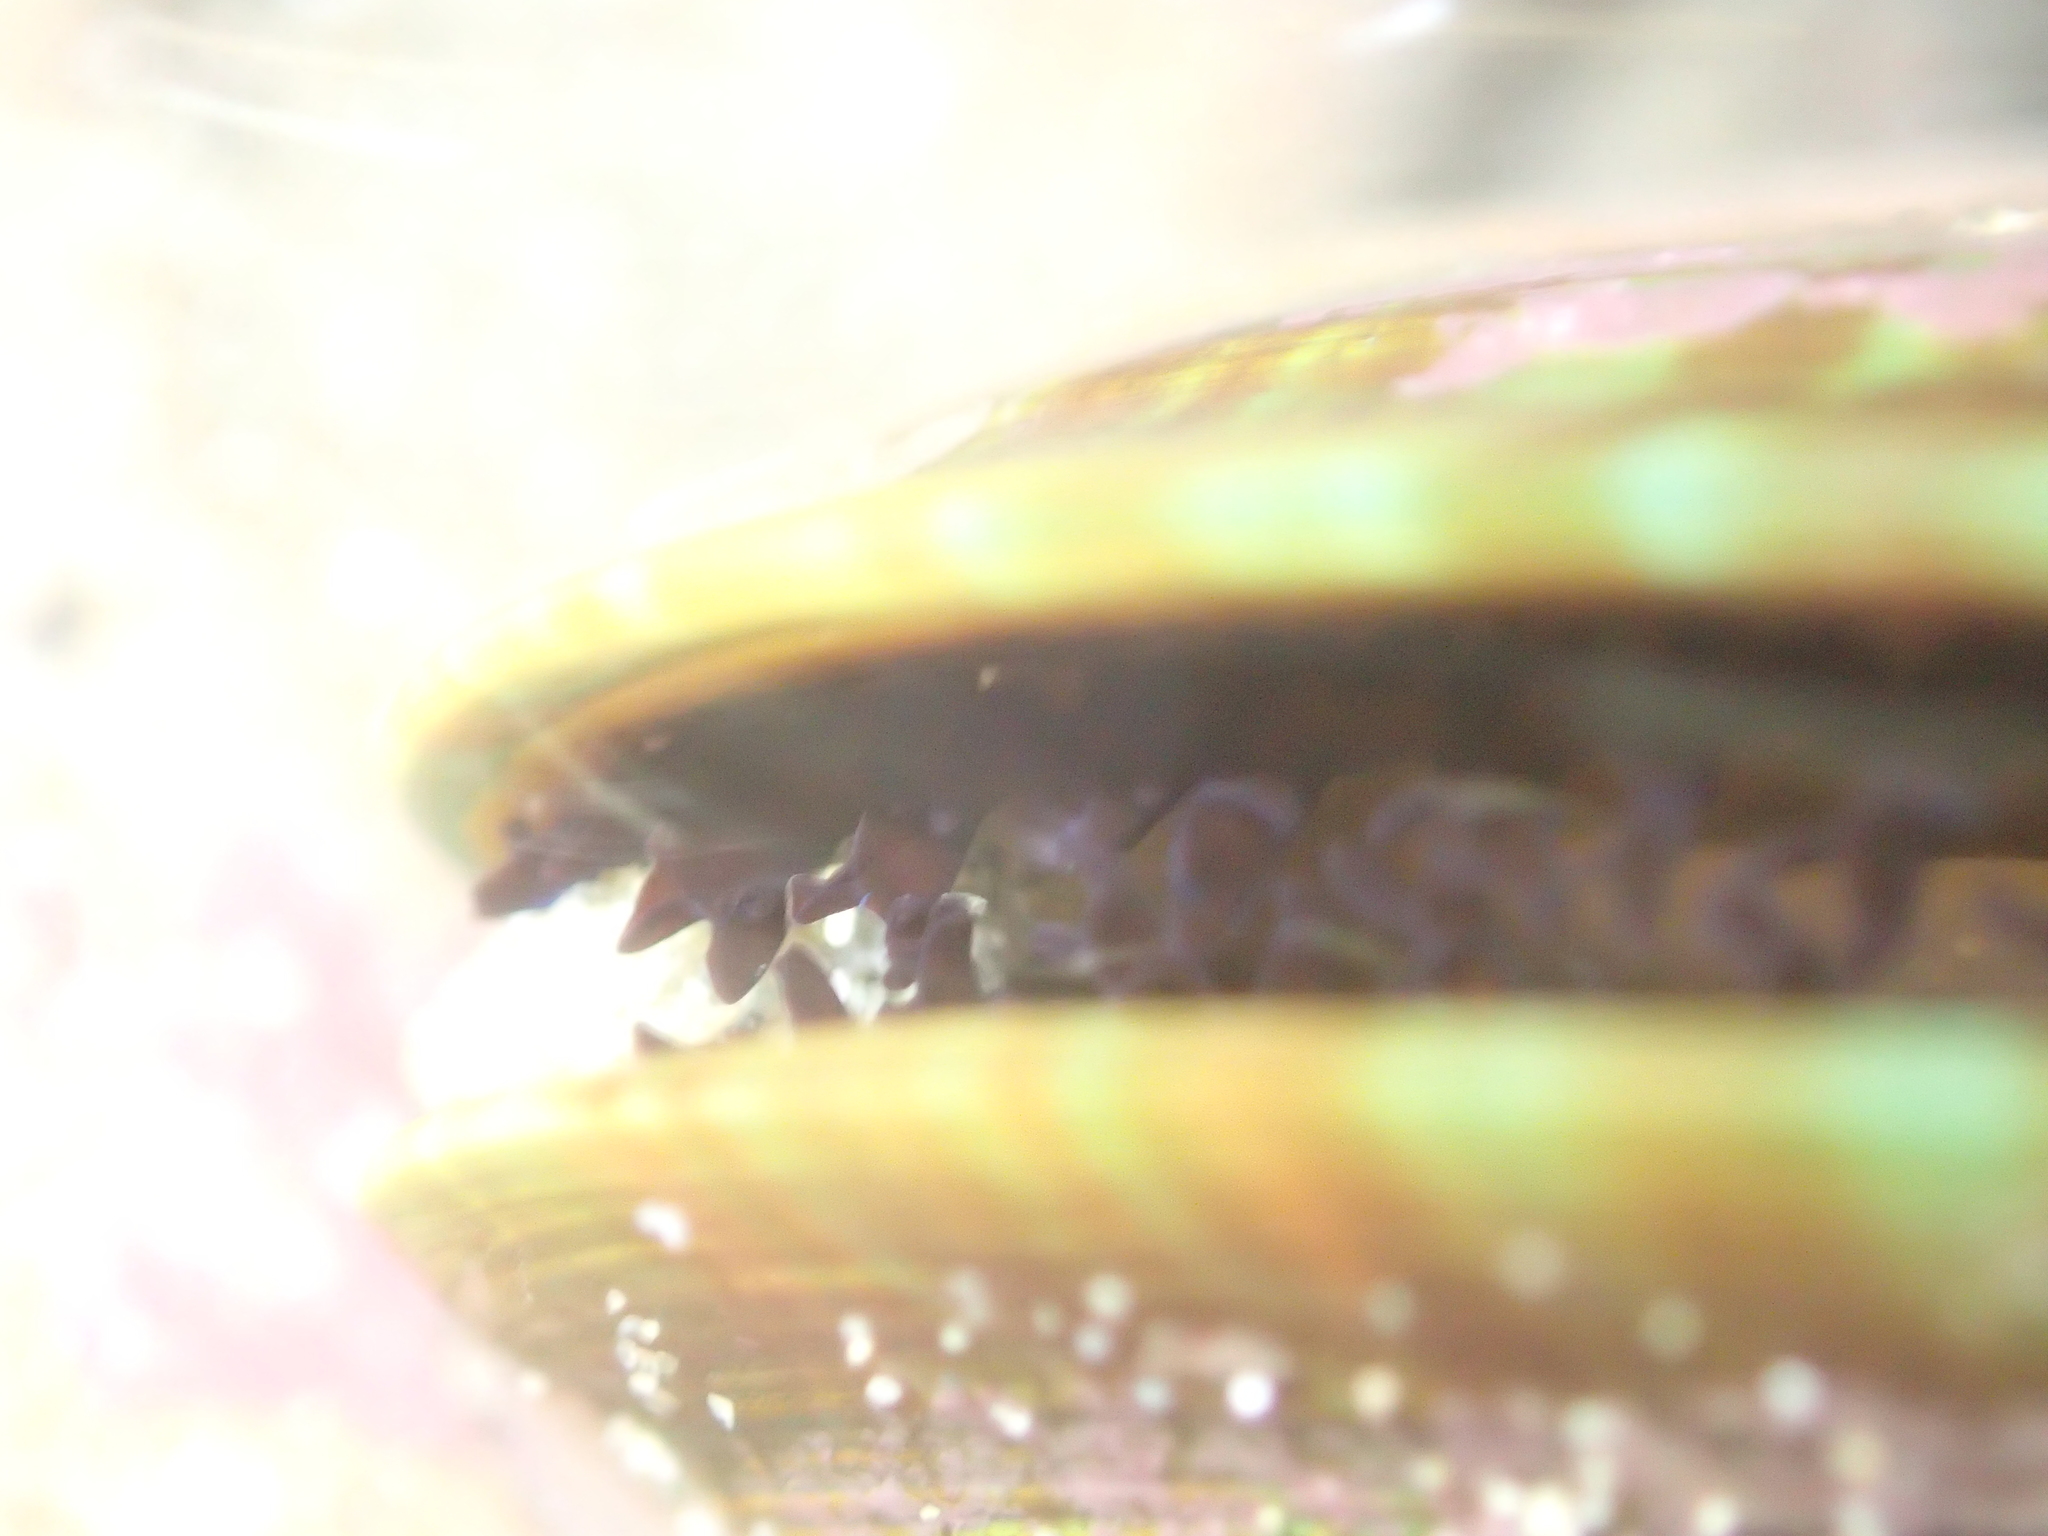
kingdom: Animalia
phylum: Mollusca
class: Bivalvia
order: Mytilida
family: Mytilidae
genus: Perna
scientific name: Perna canaliculus
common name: New zealand greenshelltm
